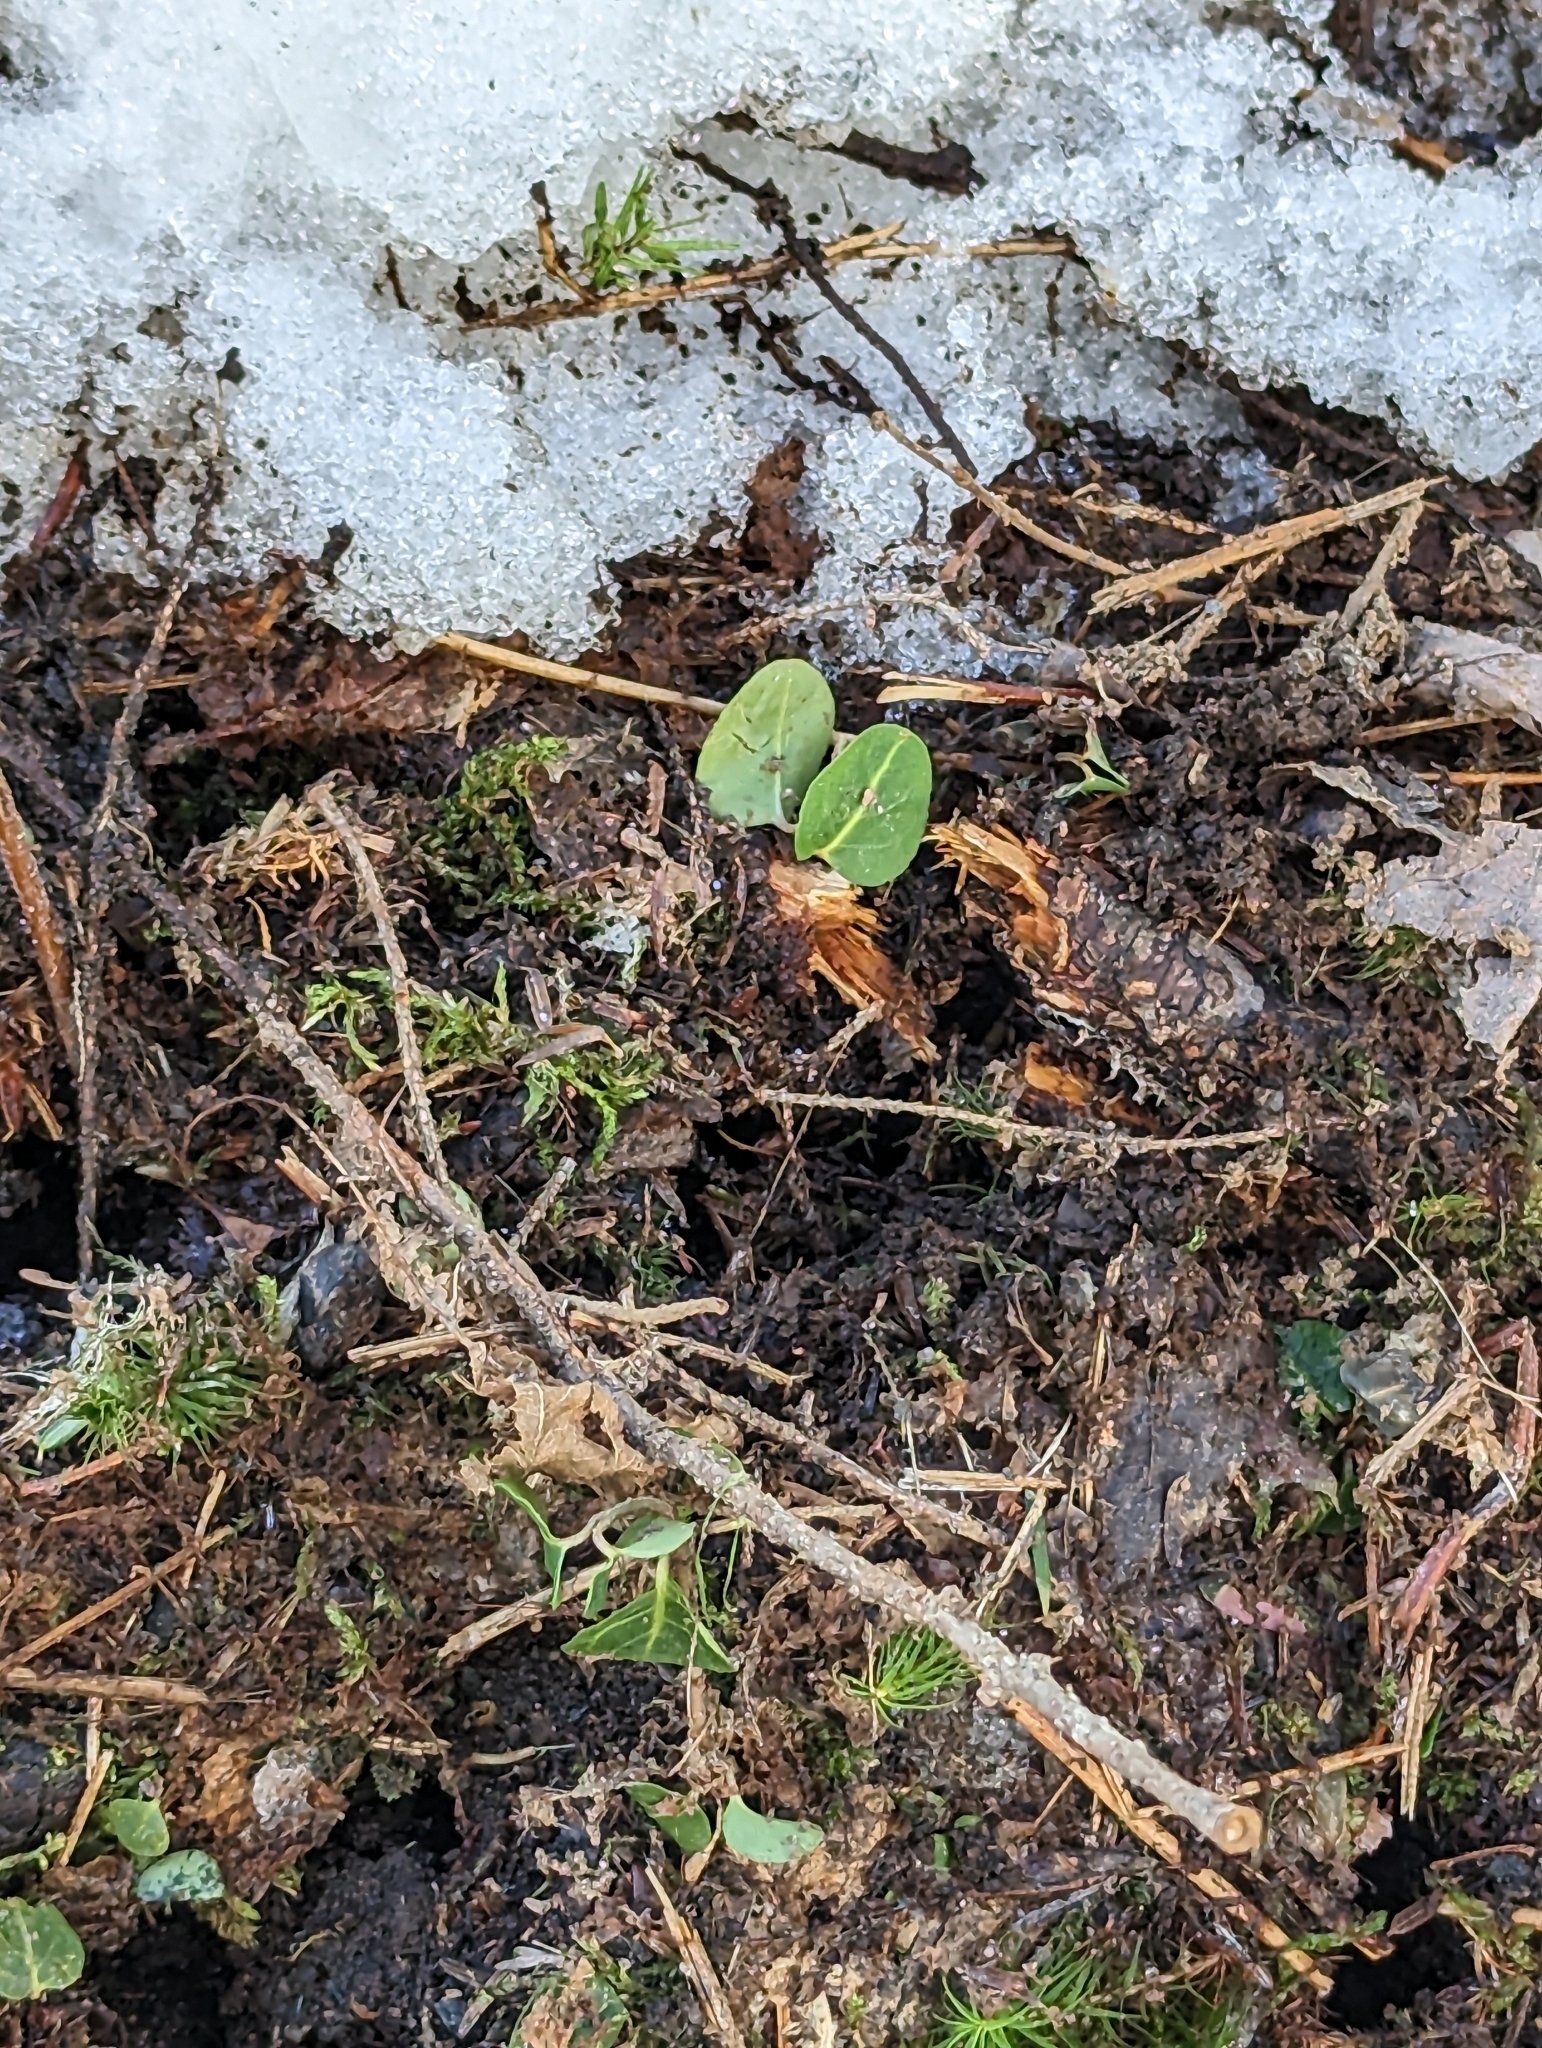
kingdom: Plantae
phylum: Tracheophyta
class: Magnoliopsida
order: Gentianales
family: Rubiaceae
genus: Mitchella
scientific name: Mitchella repens
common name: Partridge-berry
